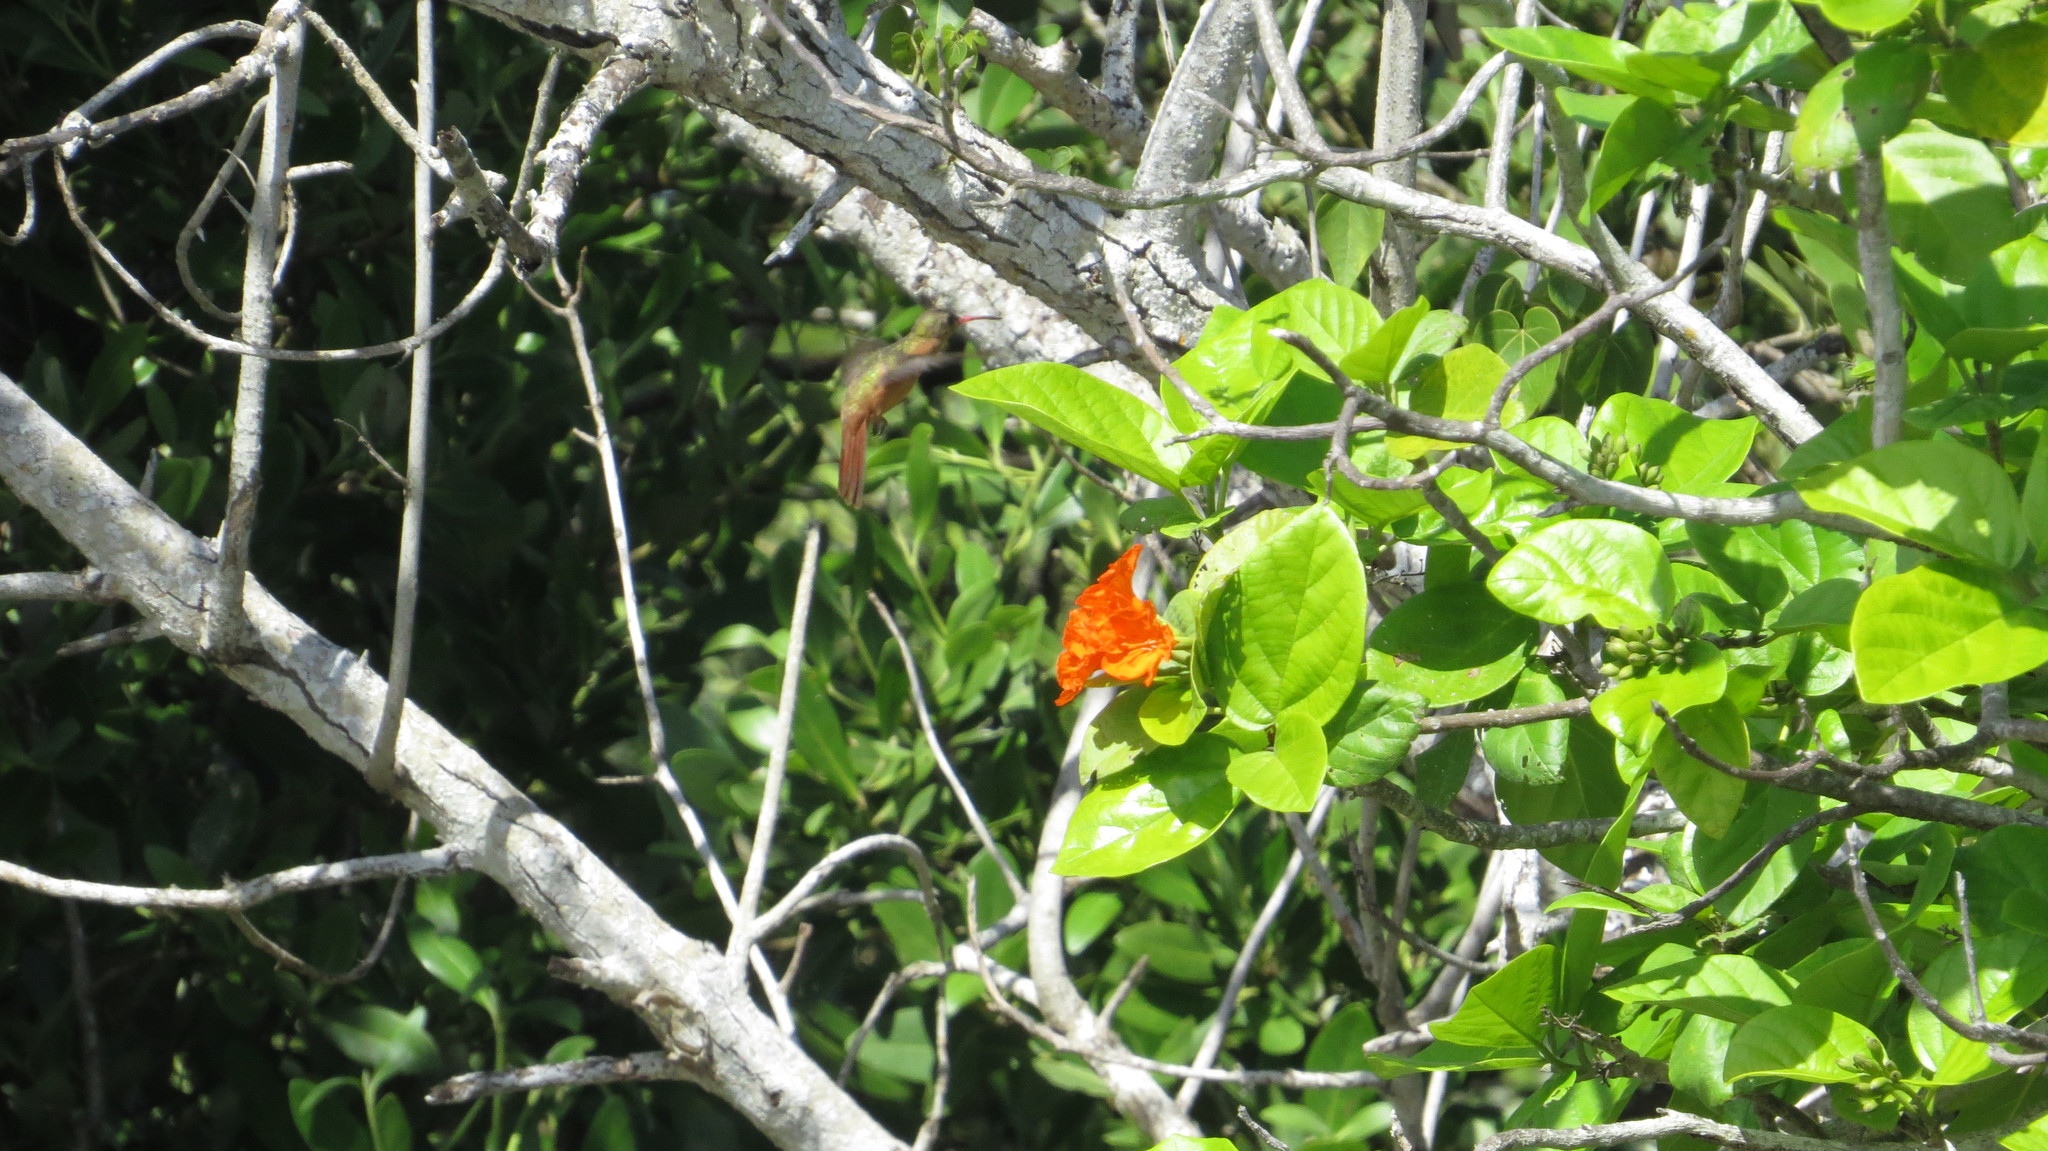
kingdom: Animalia
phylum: Chordata
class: Aves
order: Apodiformes
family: Trochilidae
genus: Amazilia
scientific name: Amazilia rutila
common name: Cinnamon hummingbird
